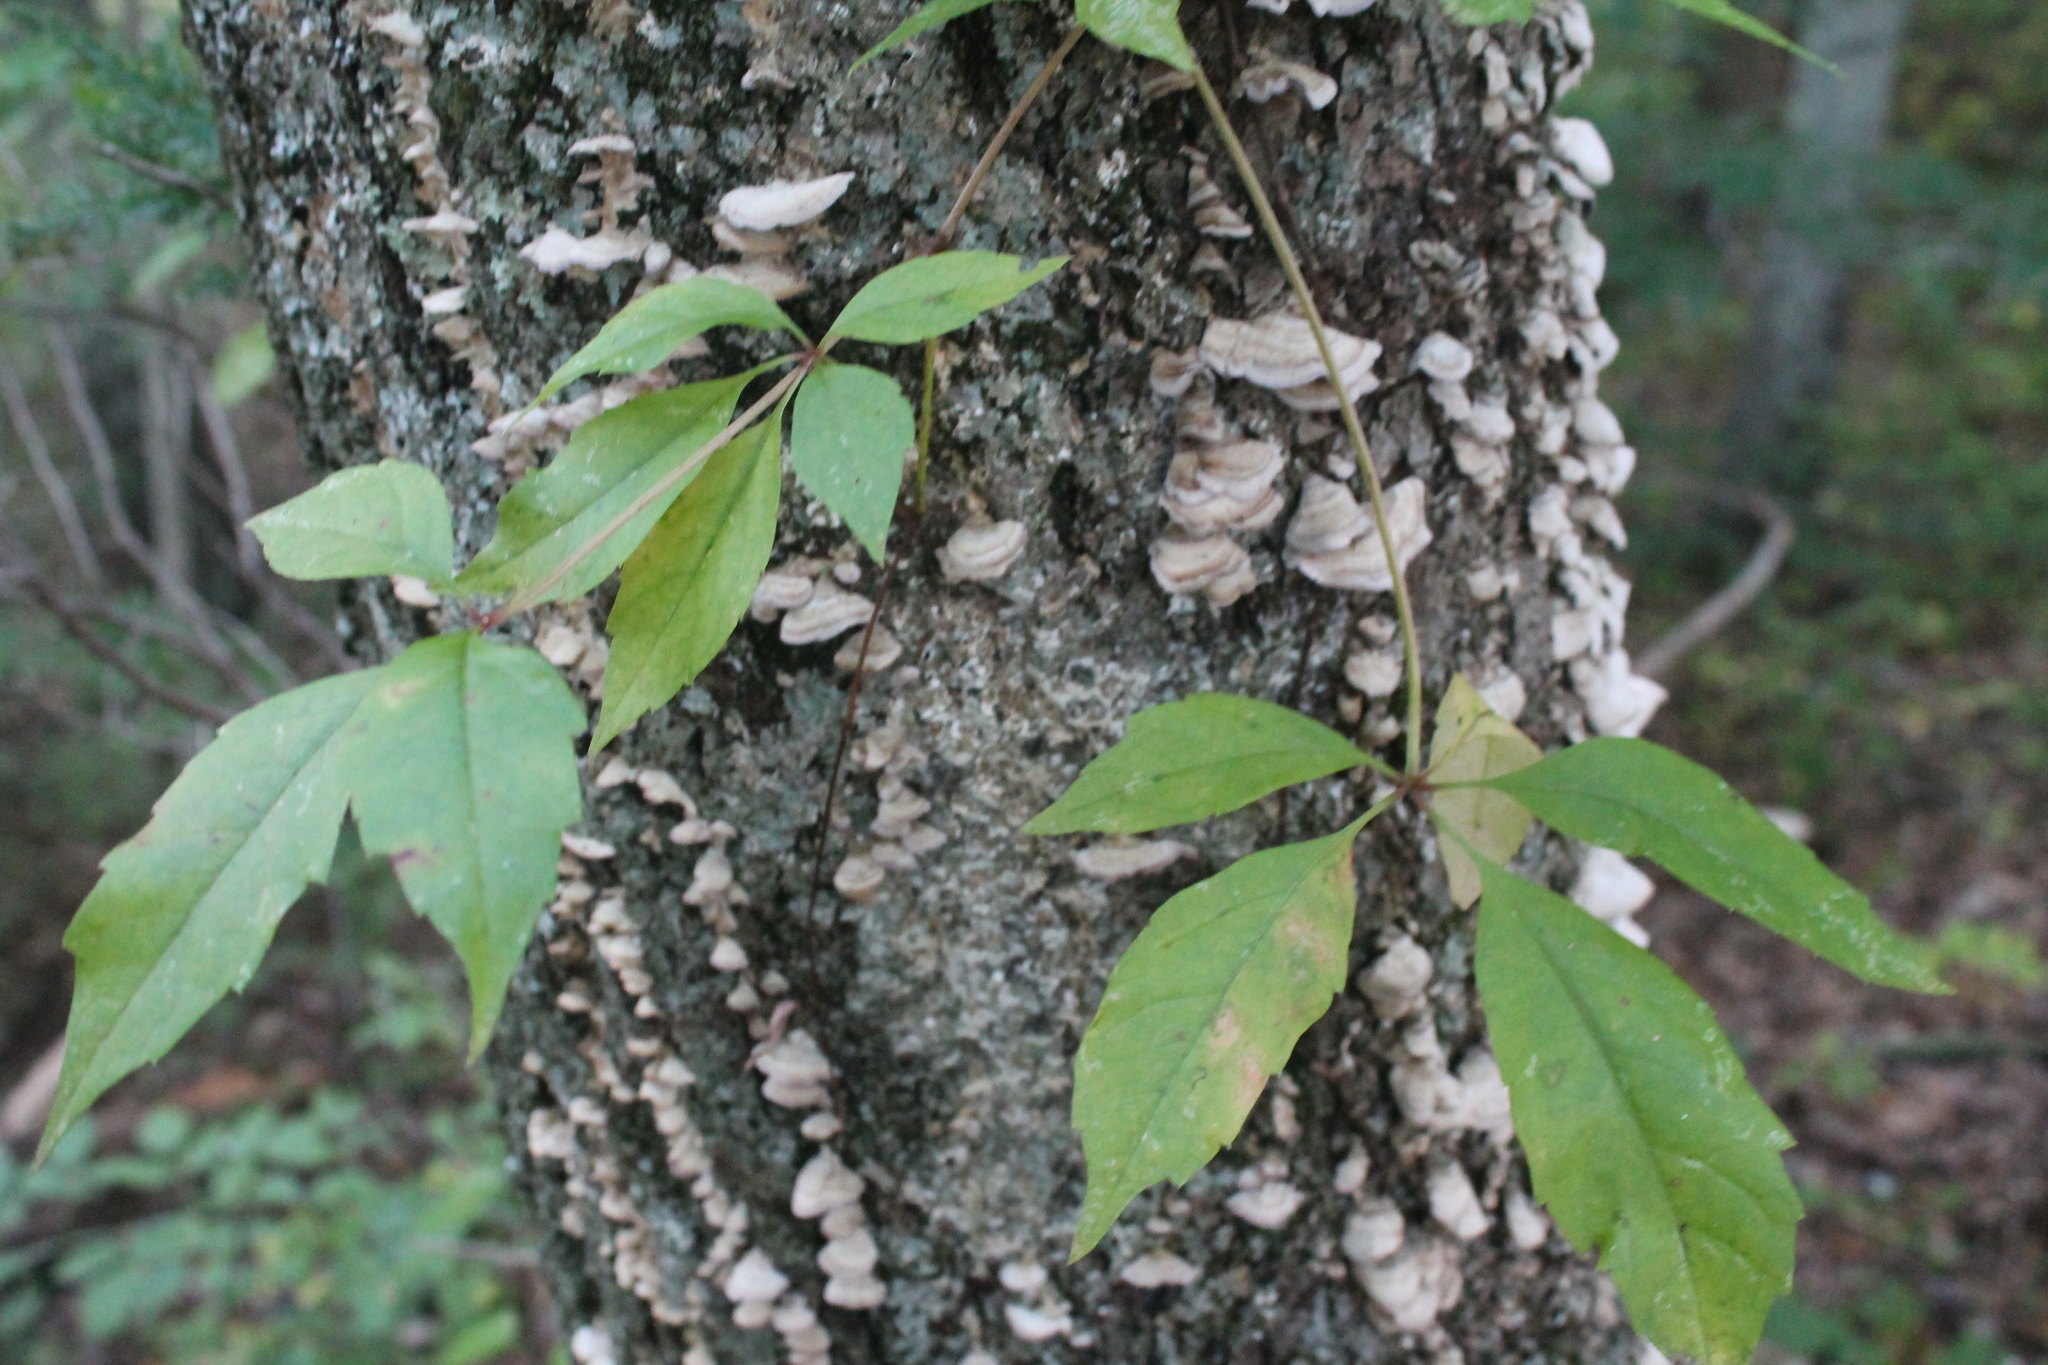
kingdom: Plantae
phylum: Tracheophyta
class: Magnoliopsida
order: Vitales
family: Vitaceae
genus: Parthenocissus
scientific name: Parthenocissus quinquefolia
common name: Virginia-creeper
